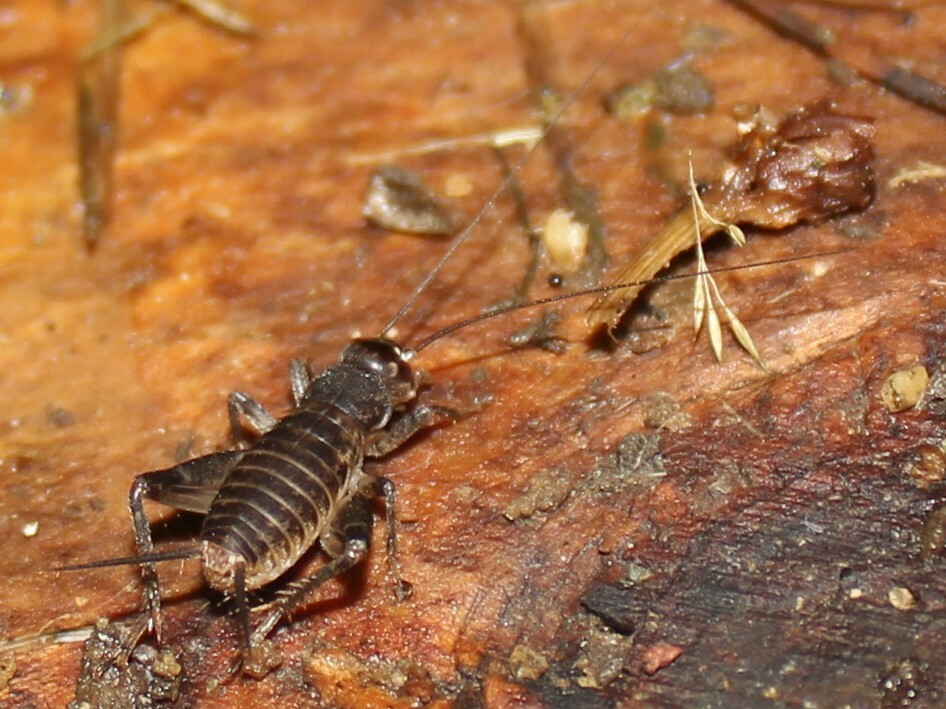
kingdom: Animalia
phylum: Arthropoda
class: Insecta
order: Orthoptera
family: Gryllidae
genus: Velarifictorus
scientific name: Velarifictorus micado
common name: Japanese burrowing cricket
